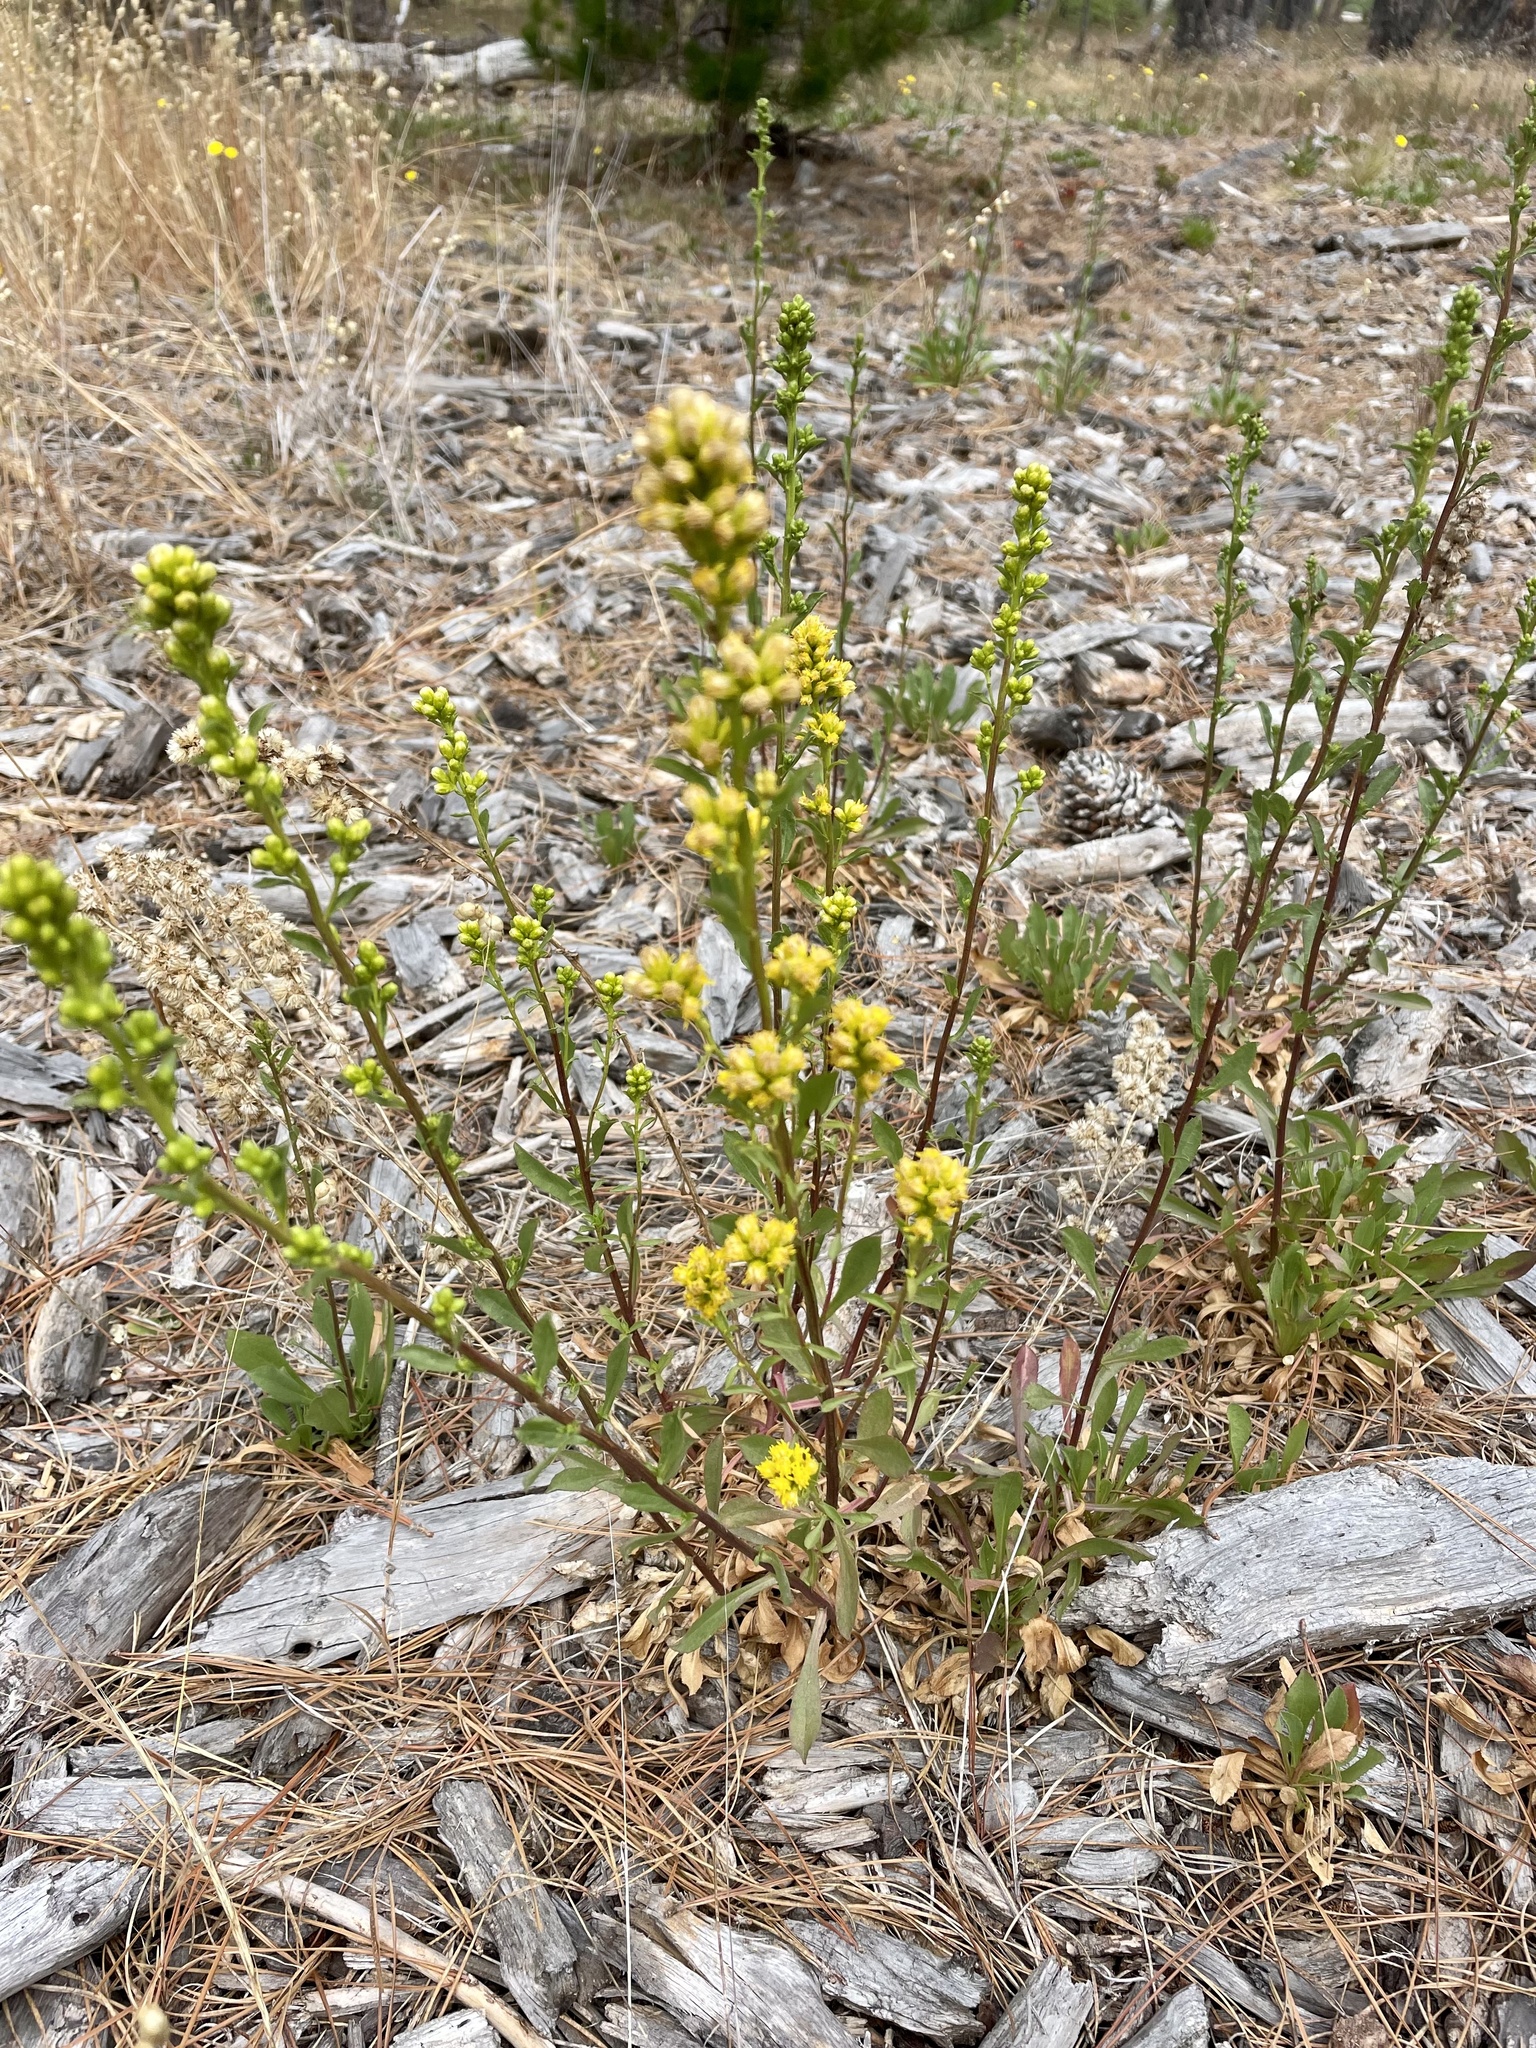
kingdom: Plantae
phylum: Tracheophyta
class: Magnoliopsida
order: Asterales
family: Asteraceae
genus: Solidago
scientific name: Solidago spathulata
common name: Coast goldenrod
